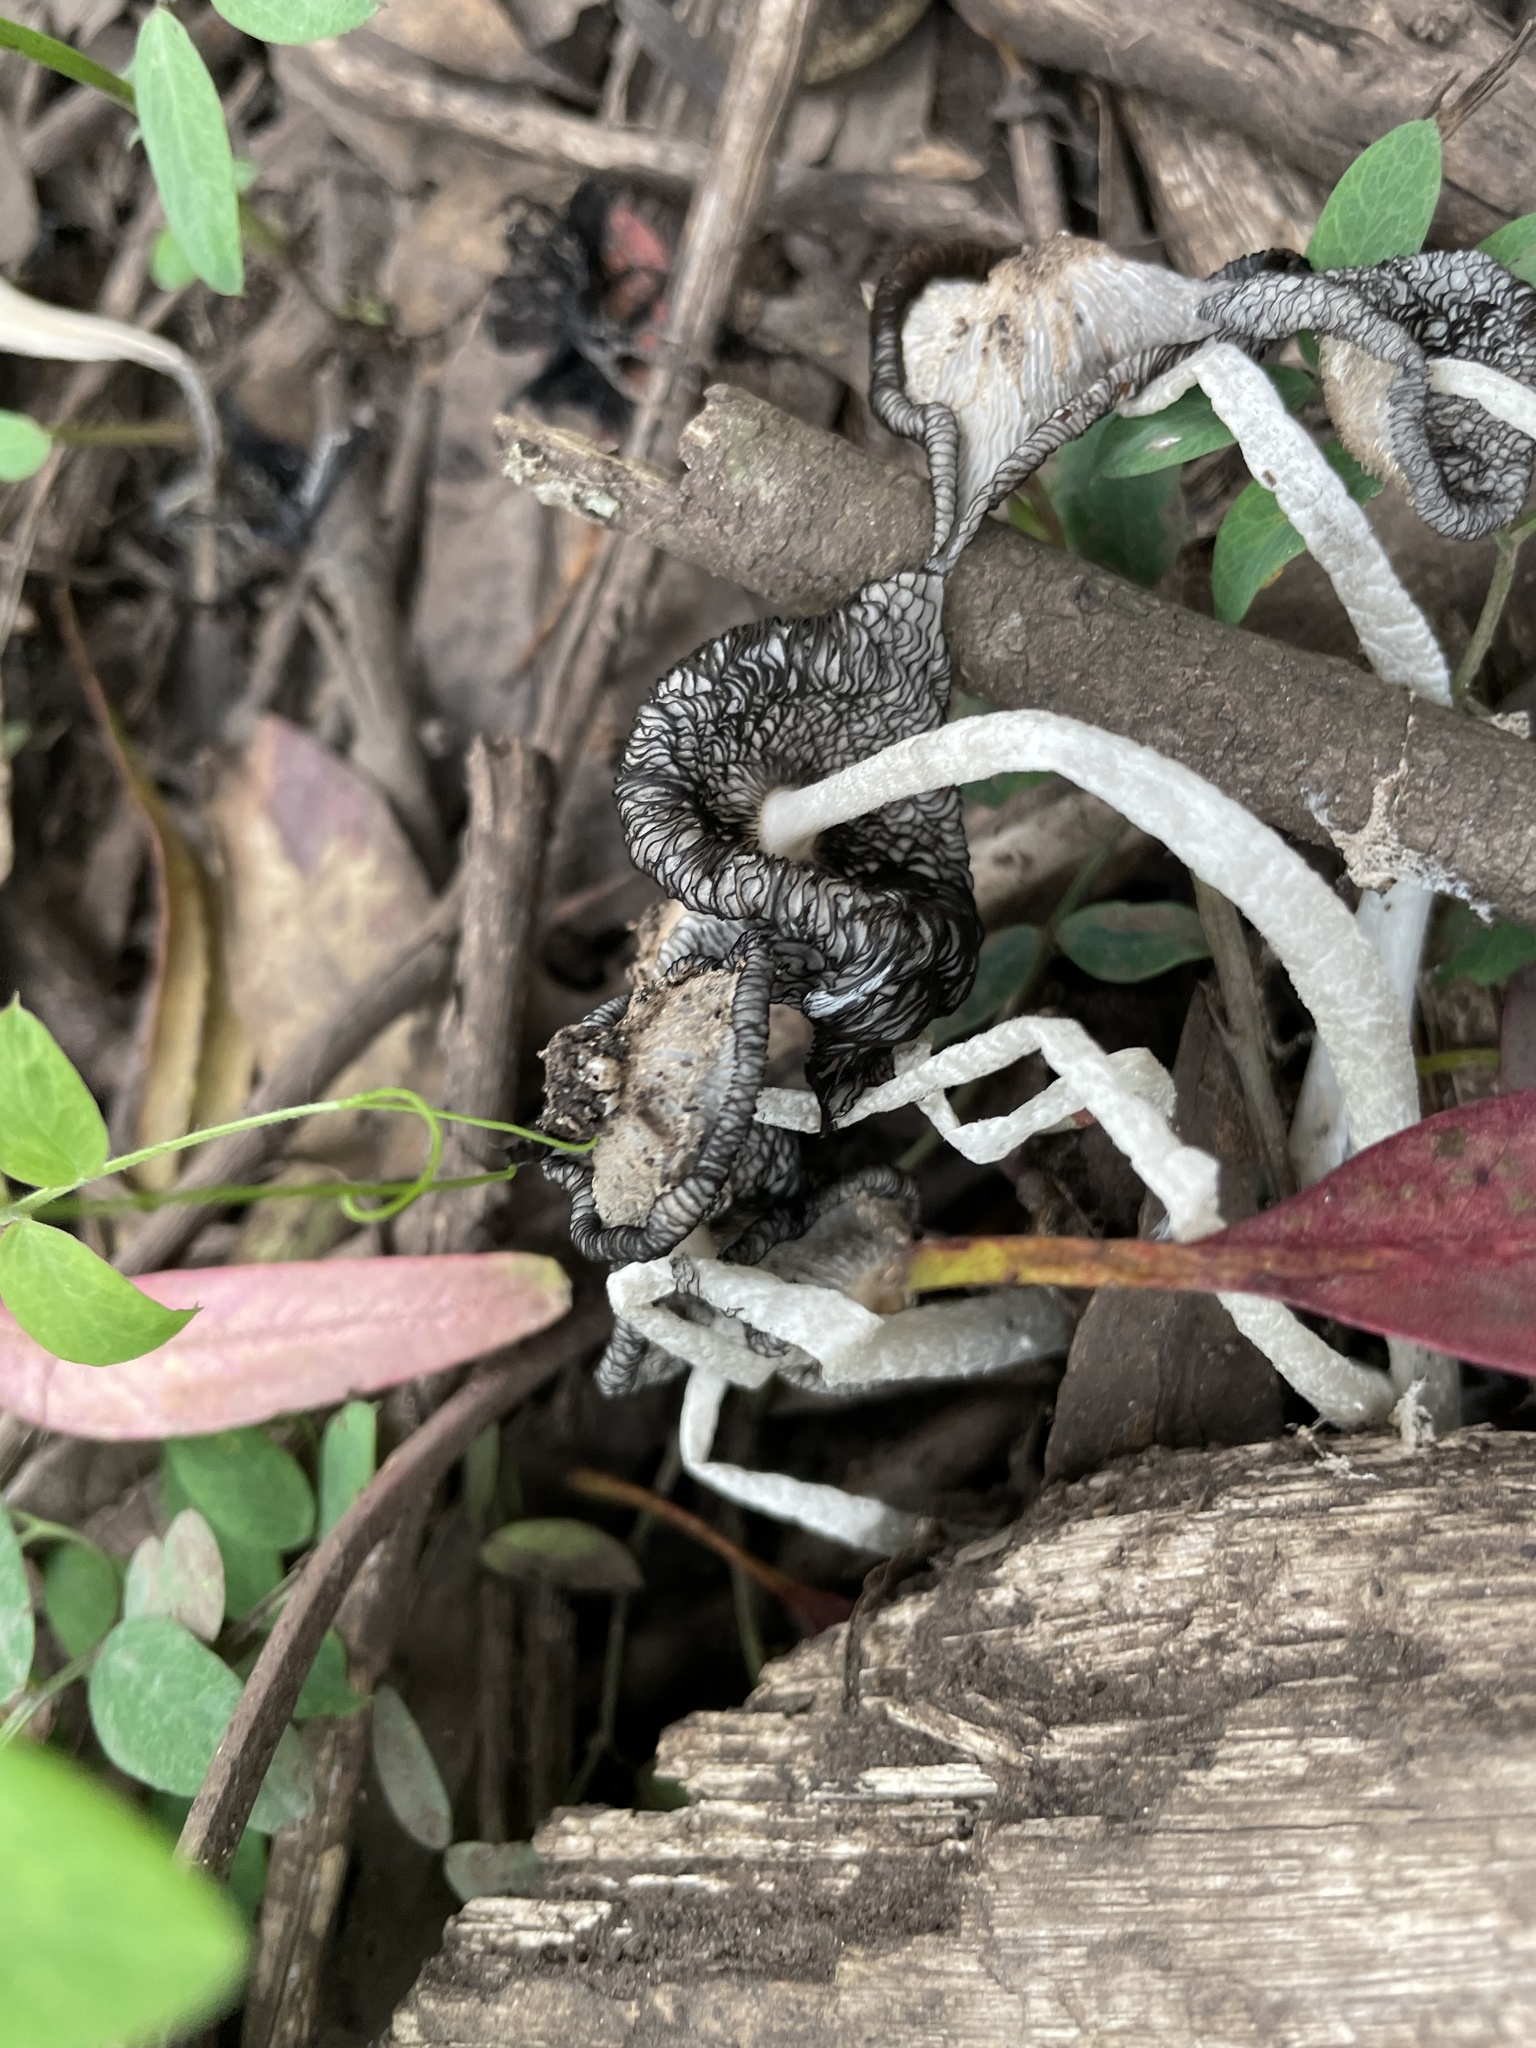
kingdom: Fungi
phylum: Basidiomycota
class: Agaricomycetes
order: Agaricales
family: Psathyrellaceae
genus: Coprinopsis
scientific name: Coprinopsis lagopus
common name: Hare'sfoot inkcap
